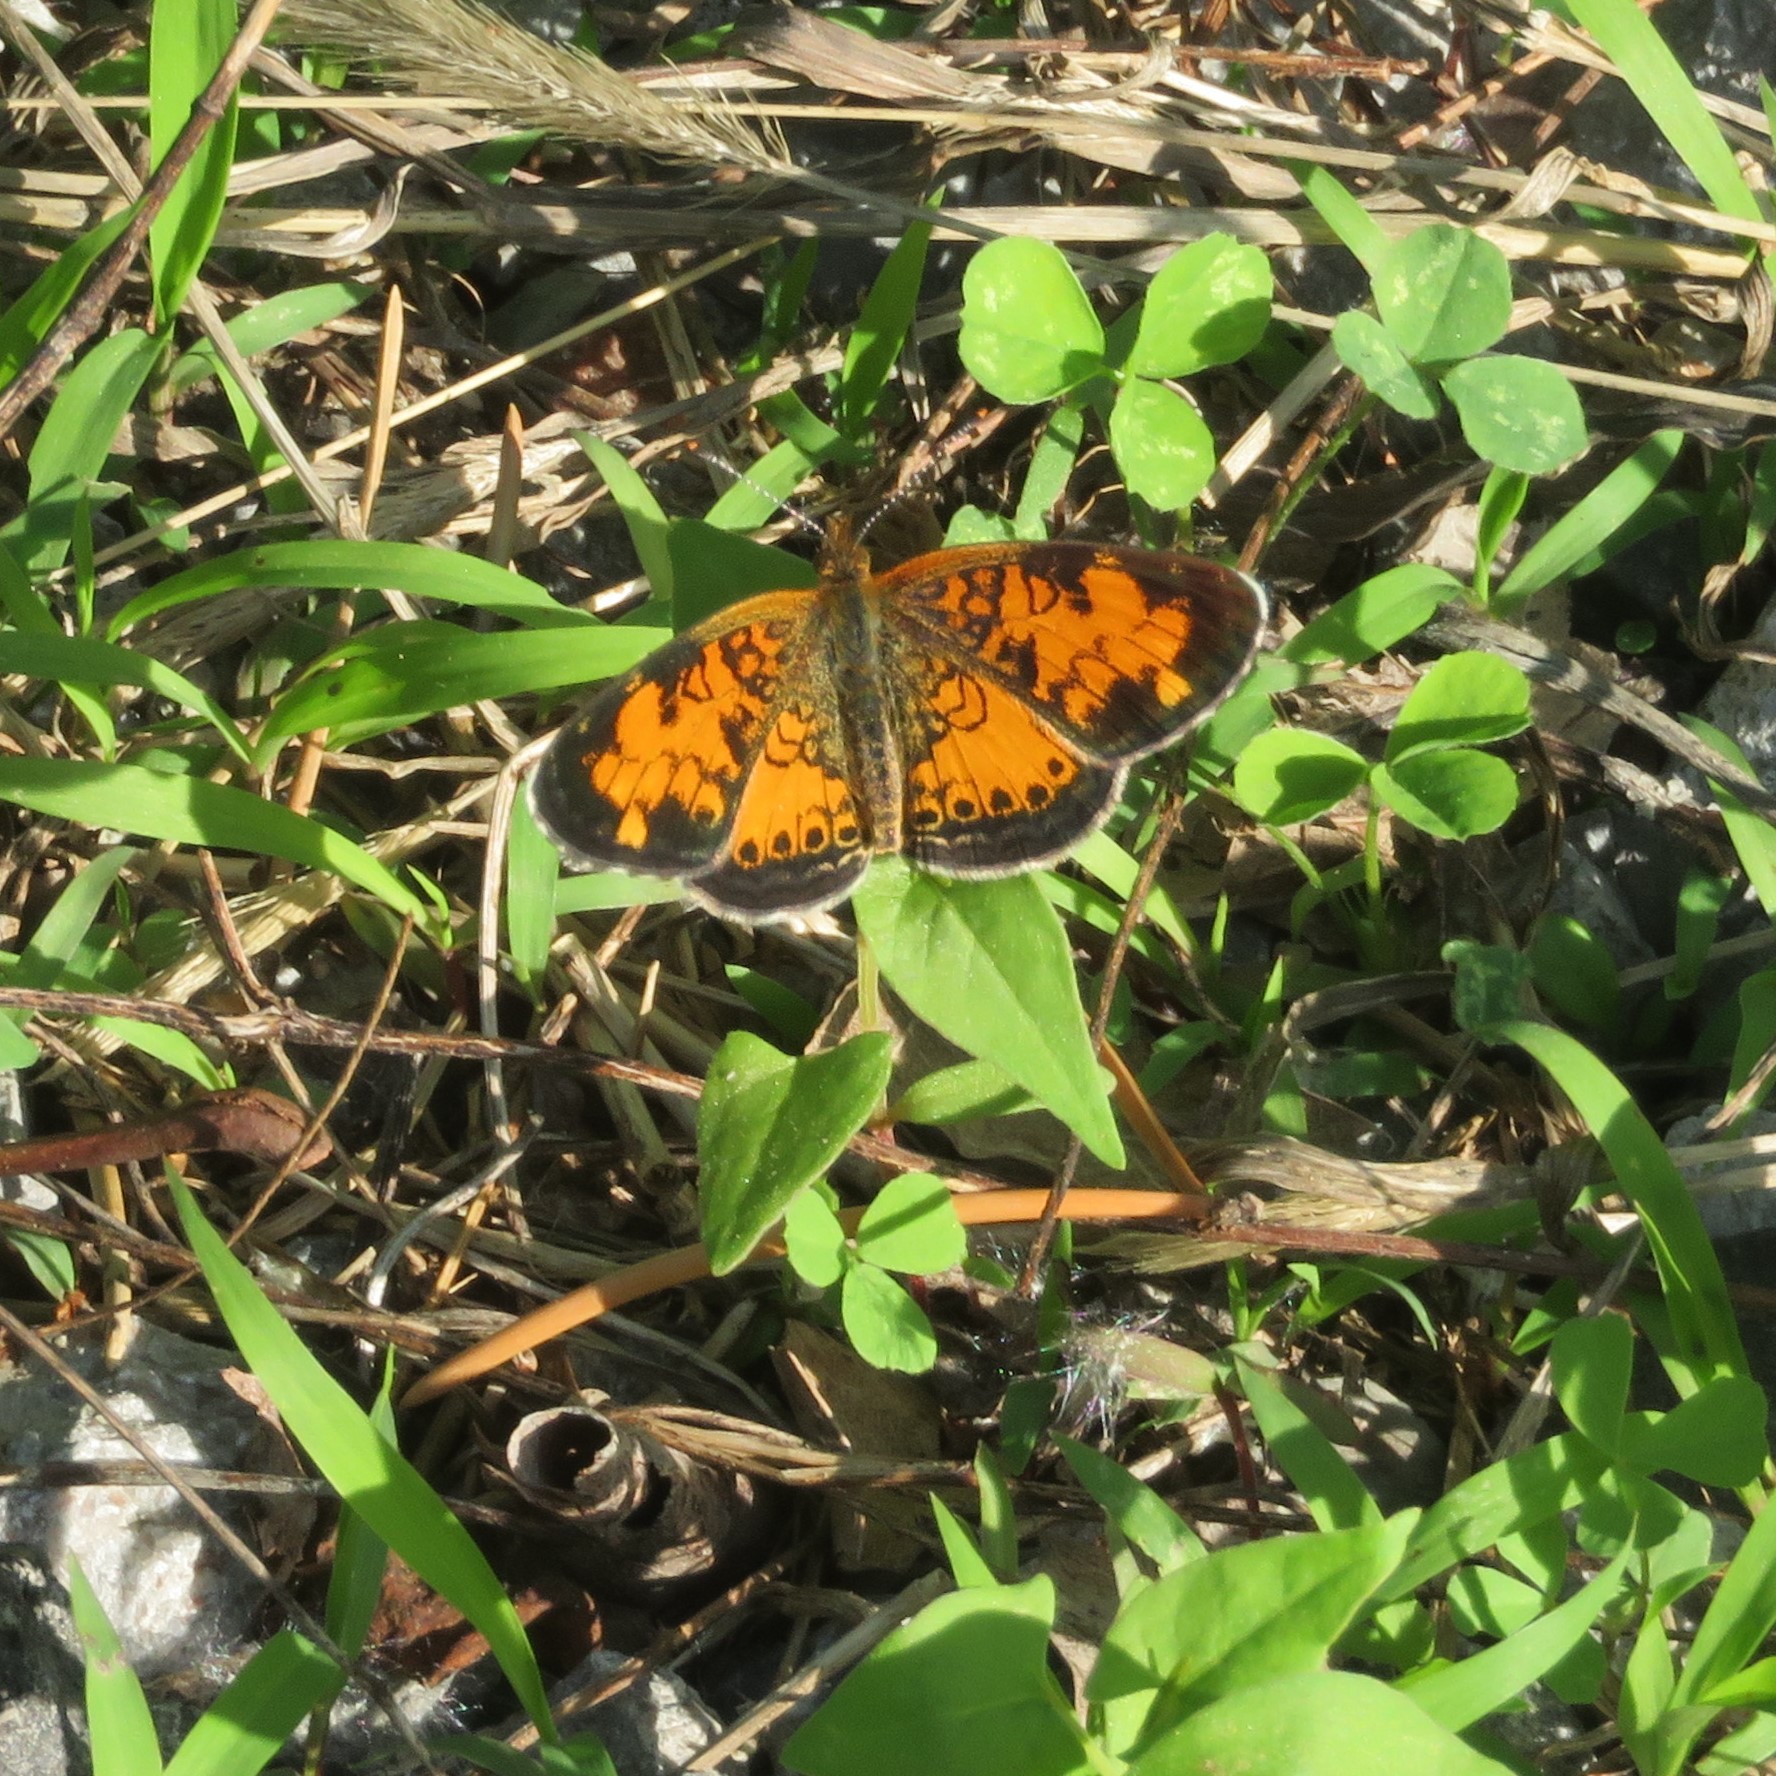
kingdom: Animalia
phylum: Arthropoda
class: Insecta
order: Lepidoptera
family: Nymphalidae
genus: Phyciodes
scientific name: Phyciodes tharos
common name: Pearl crescent
